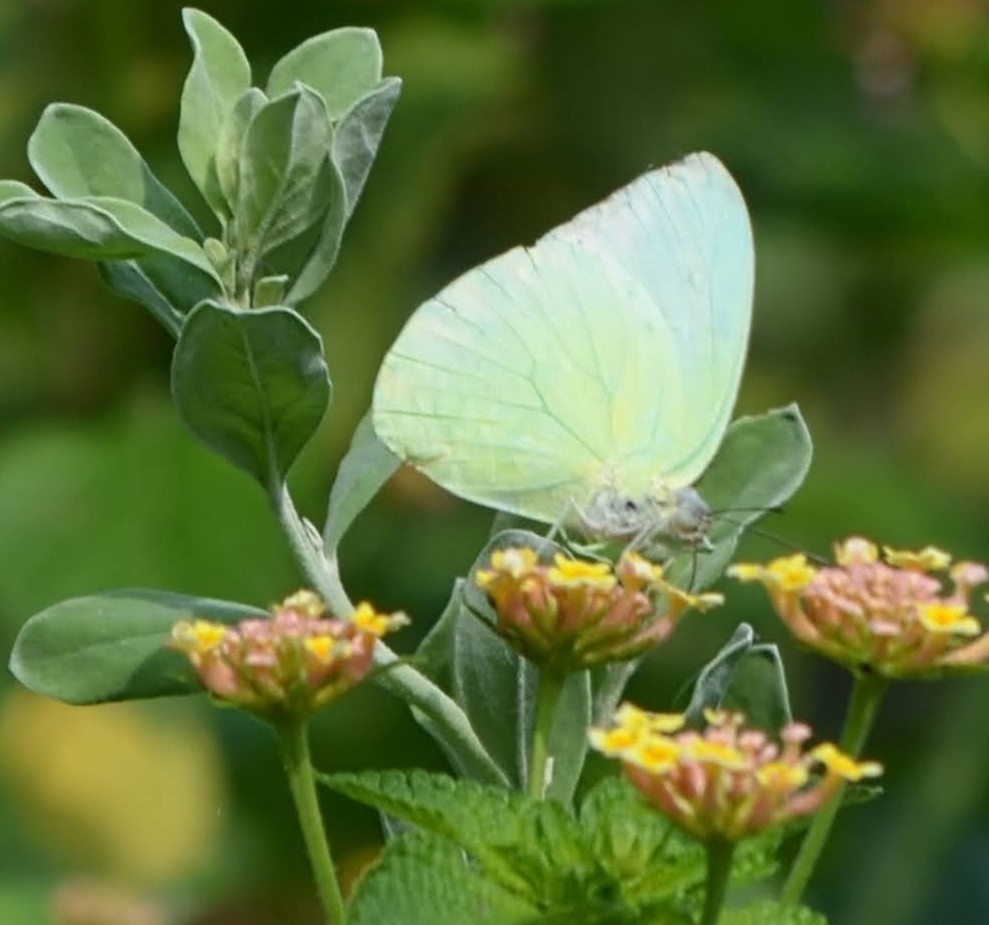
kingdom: Animalia
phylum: Arthropoda
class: Insecta
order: Lepidoptera
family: Pieridae
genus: Catopsilia
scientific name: Catopsilia pomona
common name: Common emigrant
